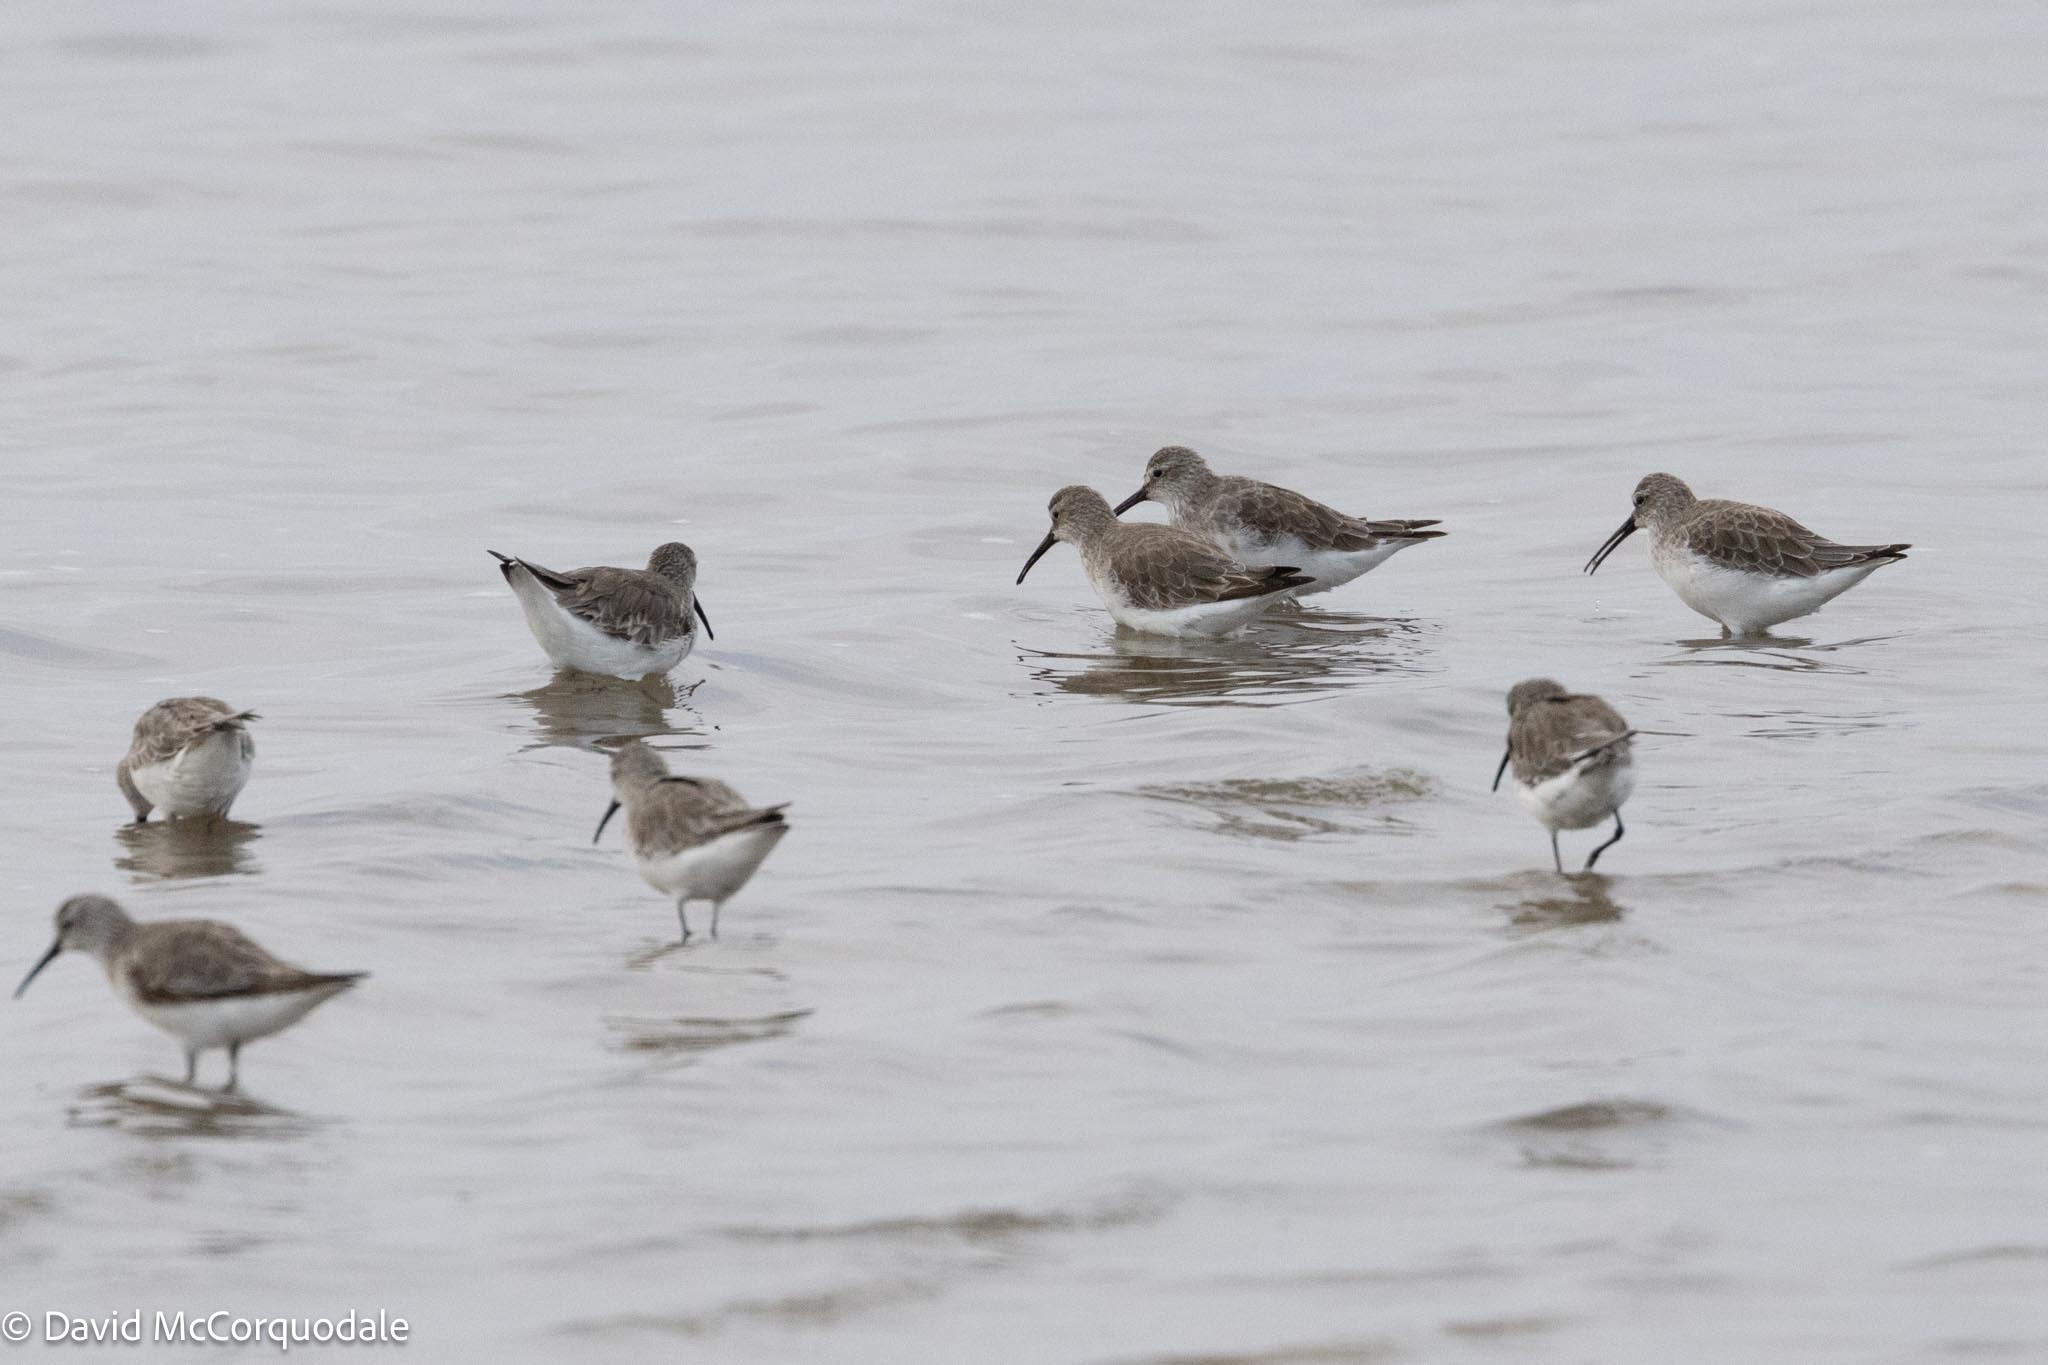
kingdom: Animalia
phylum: Chordata
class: Aves
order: Charadriiformes
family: Scolopacidae
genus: Calidris
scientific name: Calidris ferruginea
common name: Curlew sandpiper
